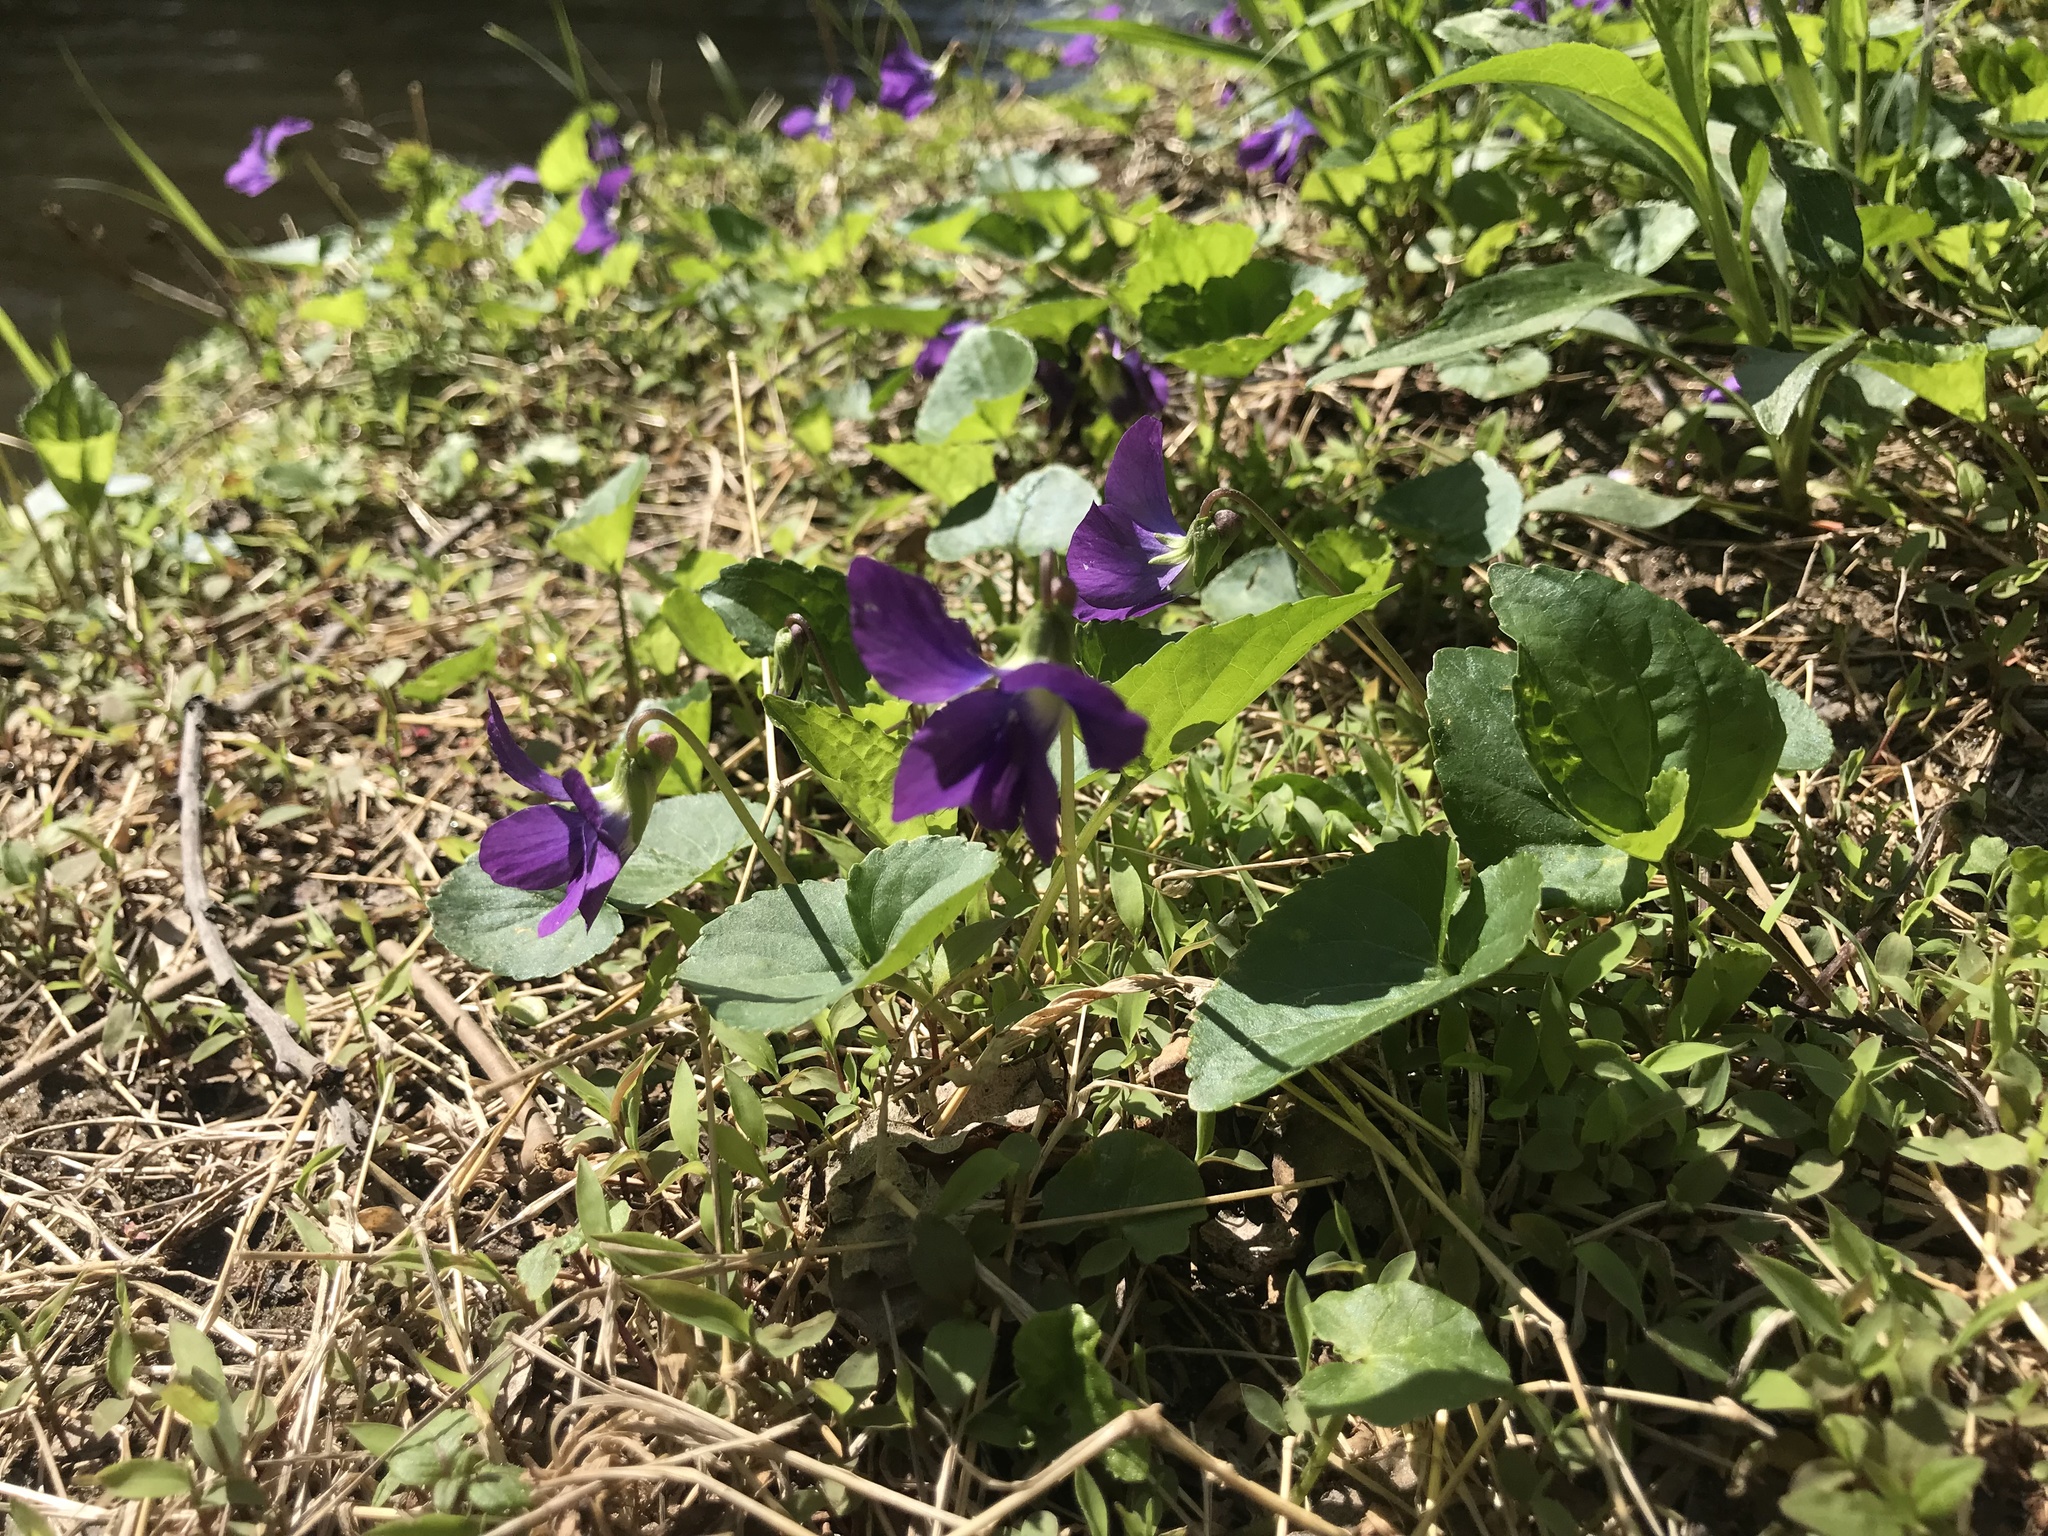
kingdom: Plantae
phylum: Tracheophyta
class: Magnoliopsida
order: Malpighiales
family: Violaceae
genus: Viola
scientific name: Viola sororia
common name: Dooryard violet
